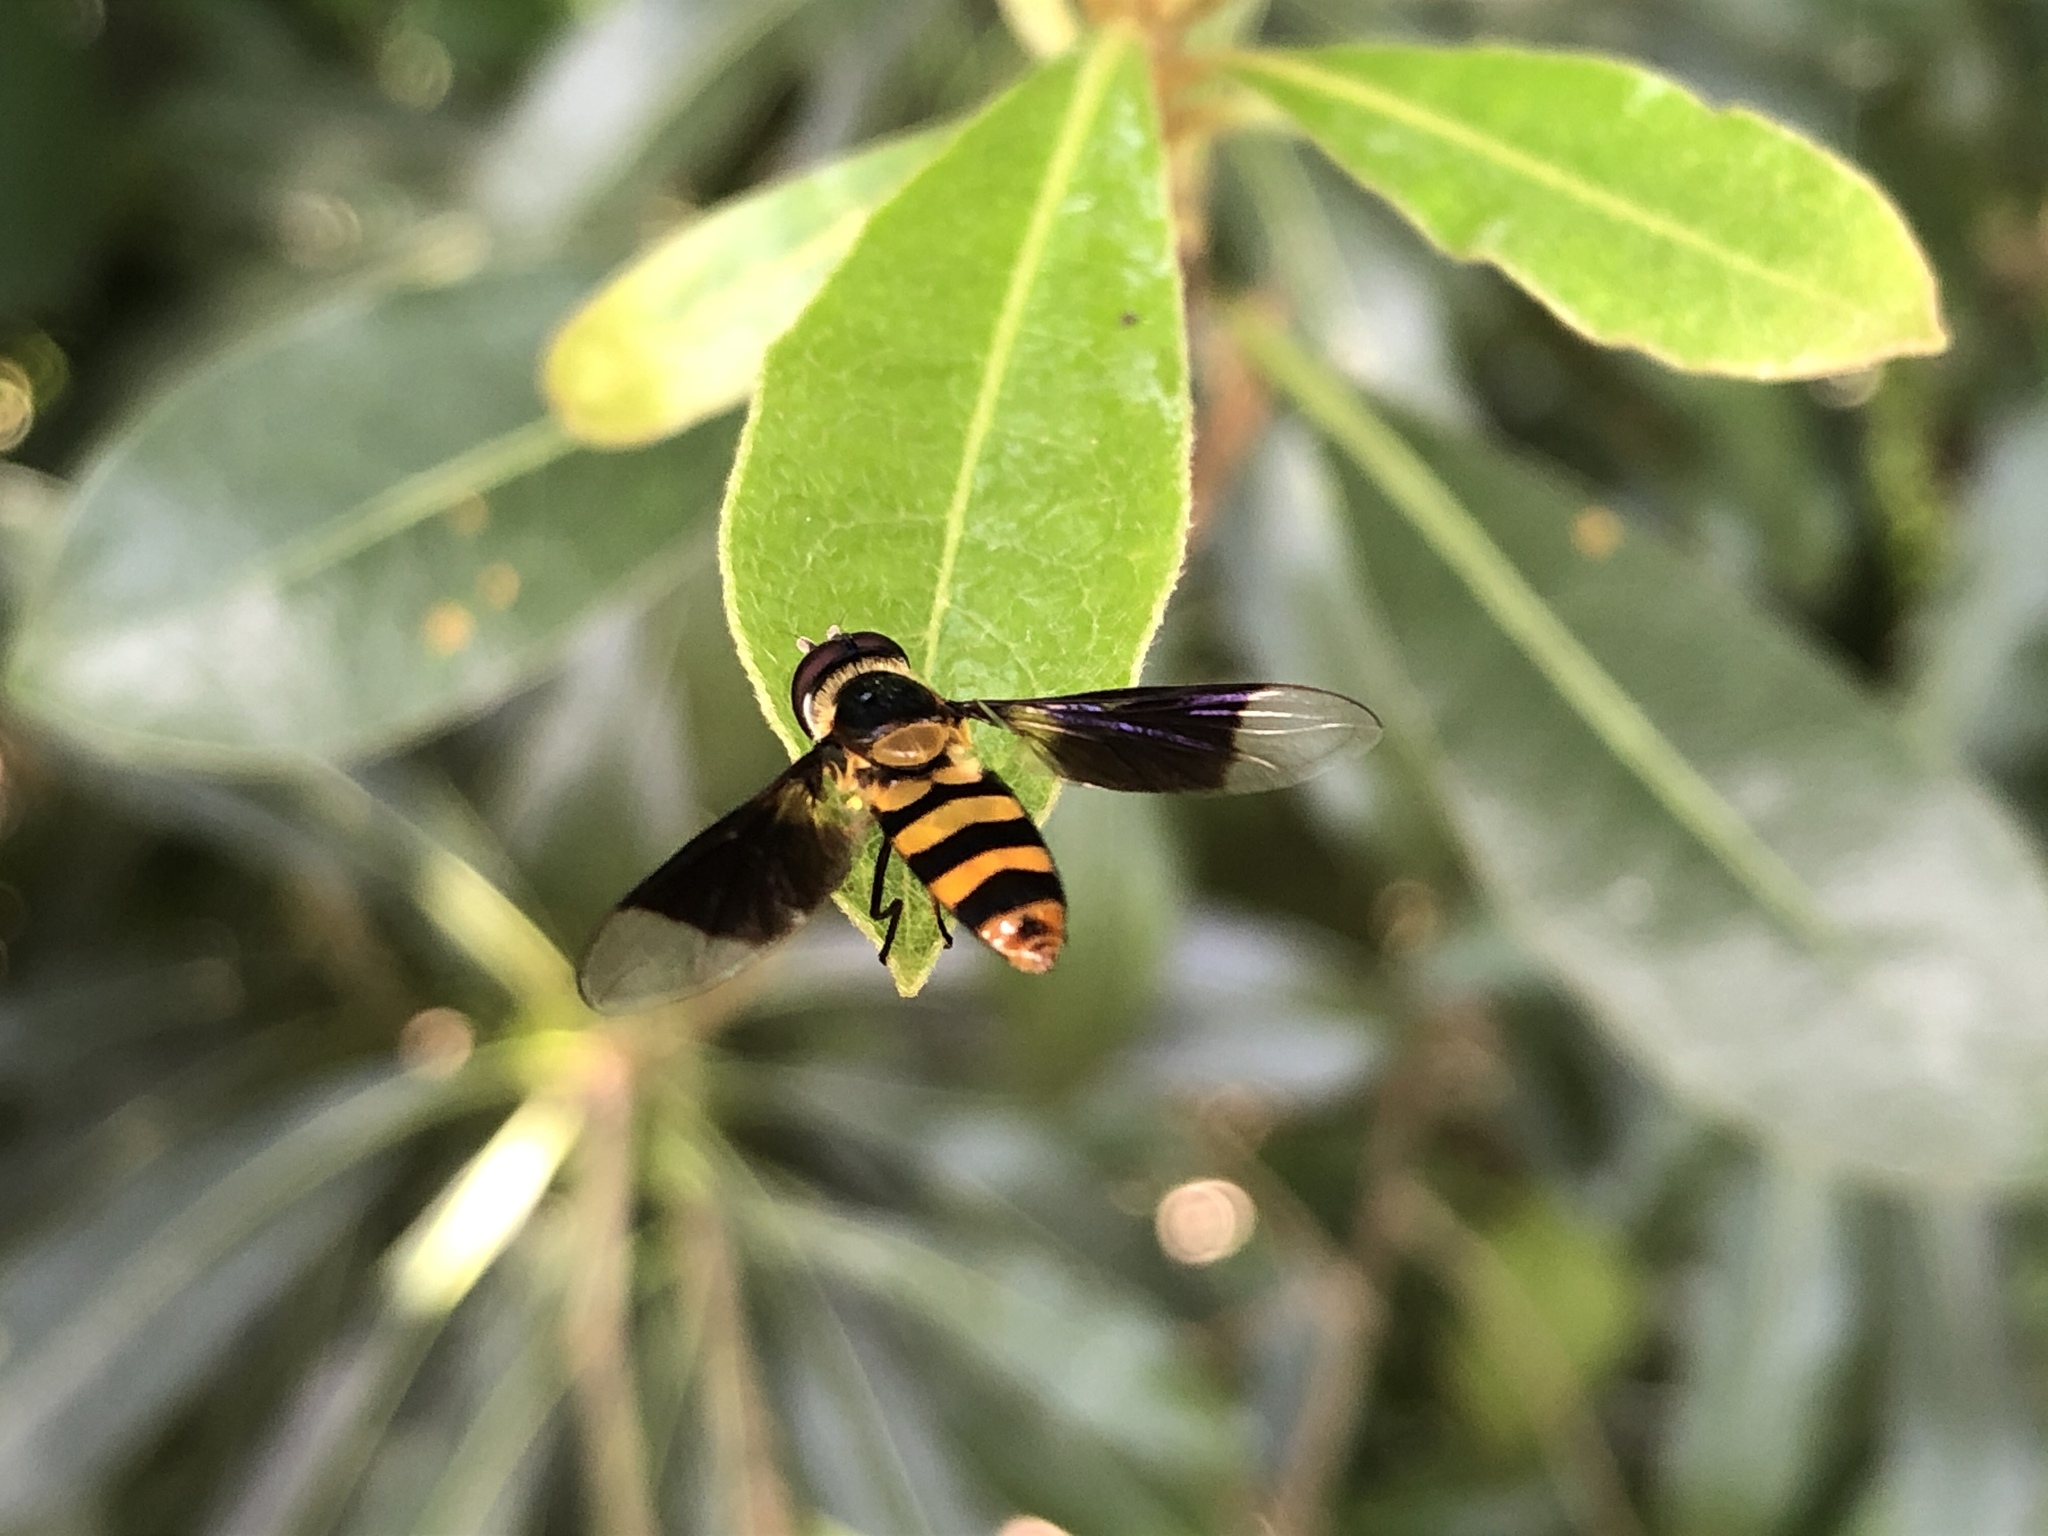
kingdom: Animalia
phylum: Arthropoda
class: Insecta
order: Diptera
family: Syrphidae
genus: Dideopsis
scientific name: Dideopsis aegrota
